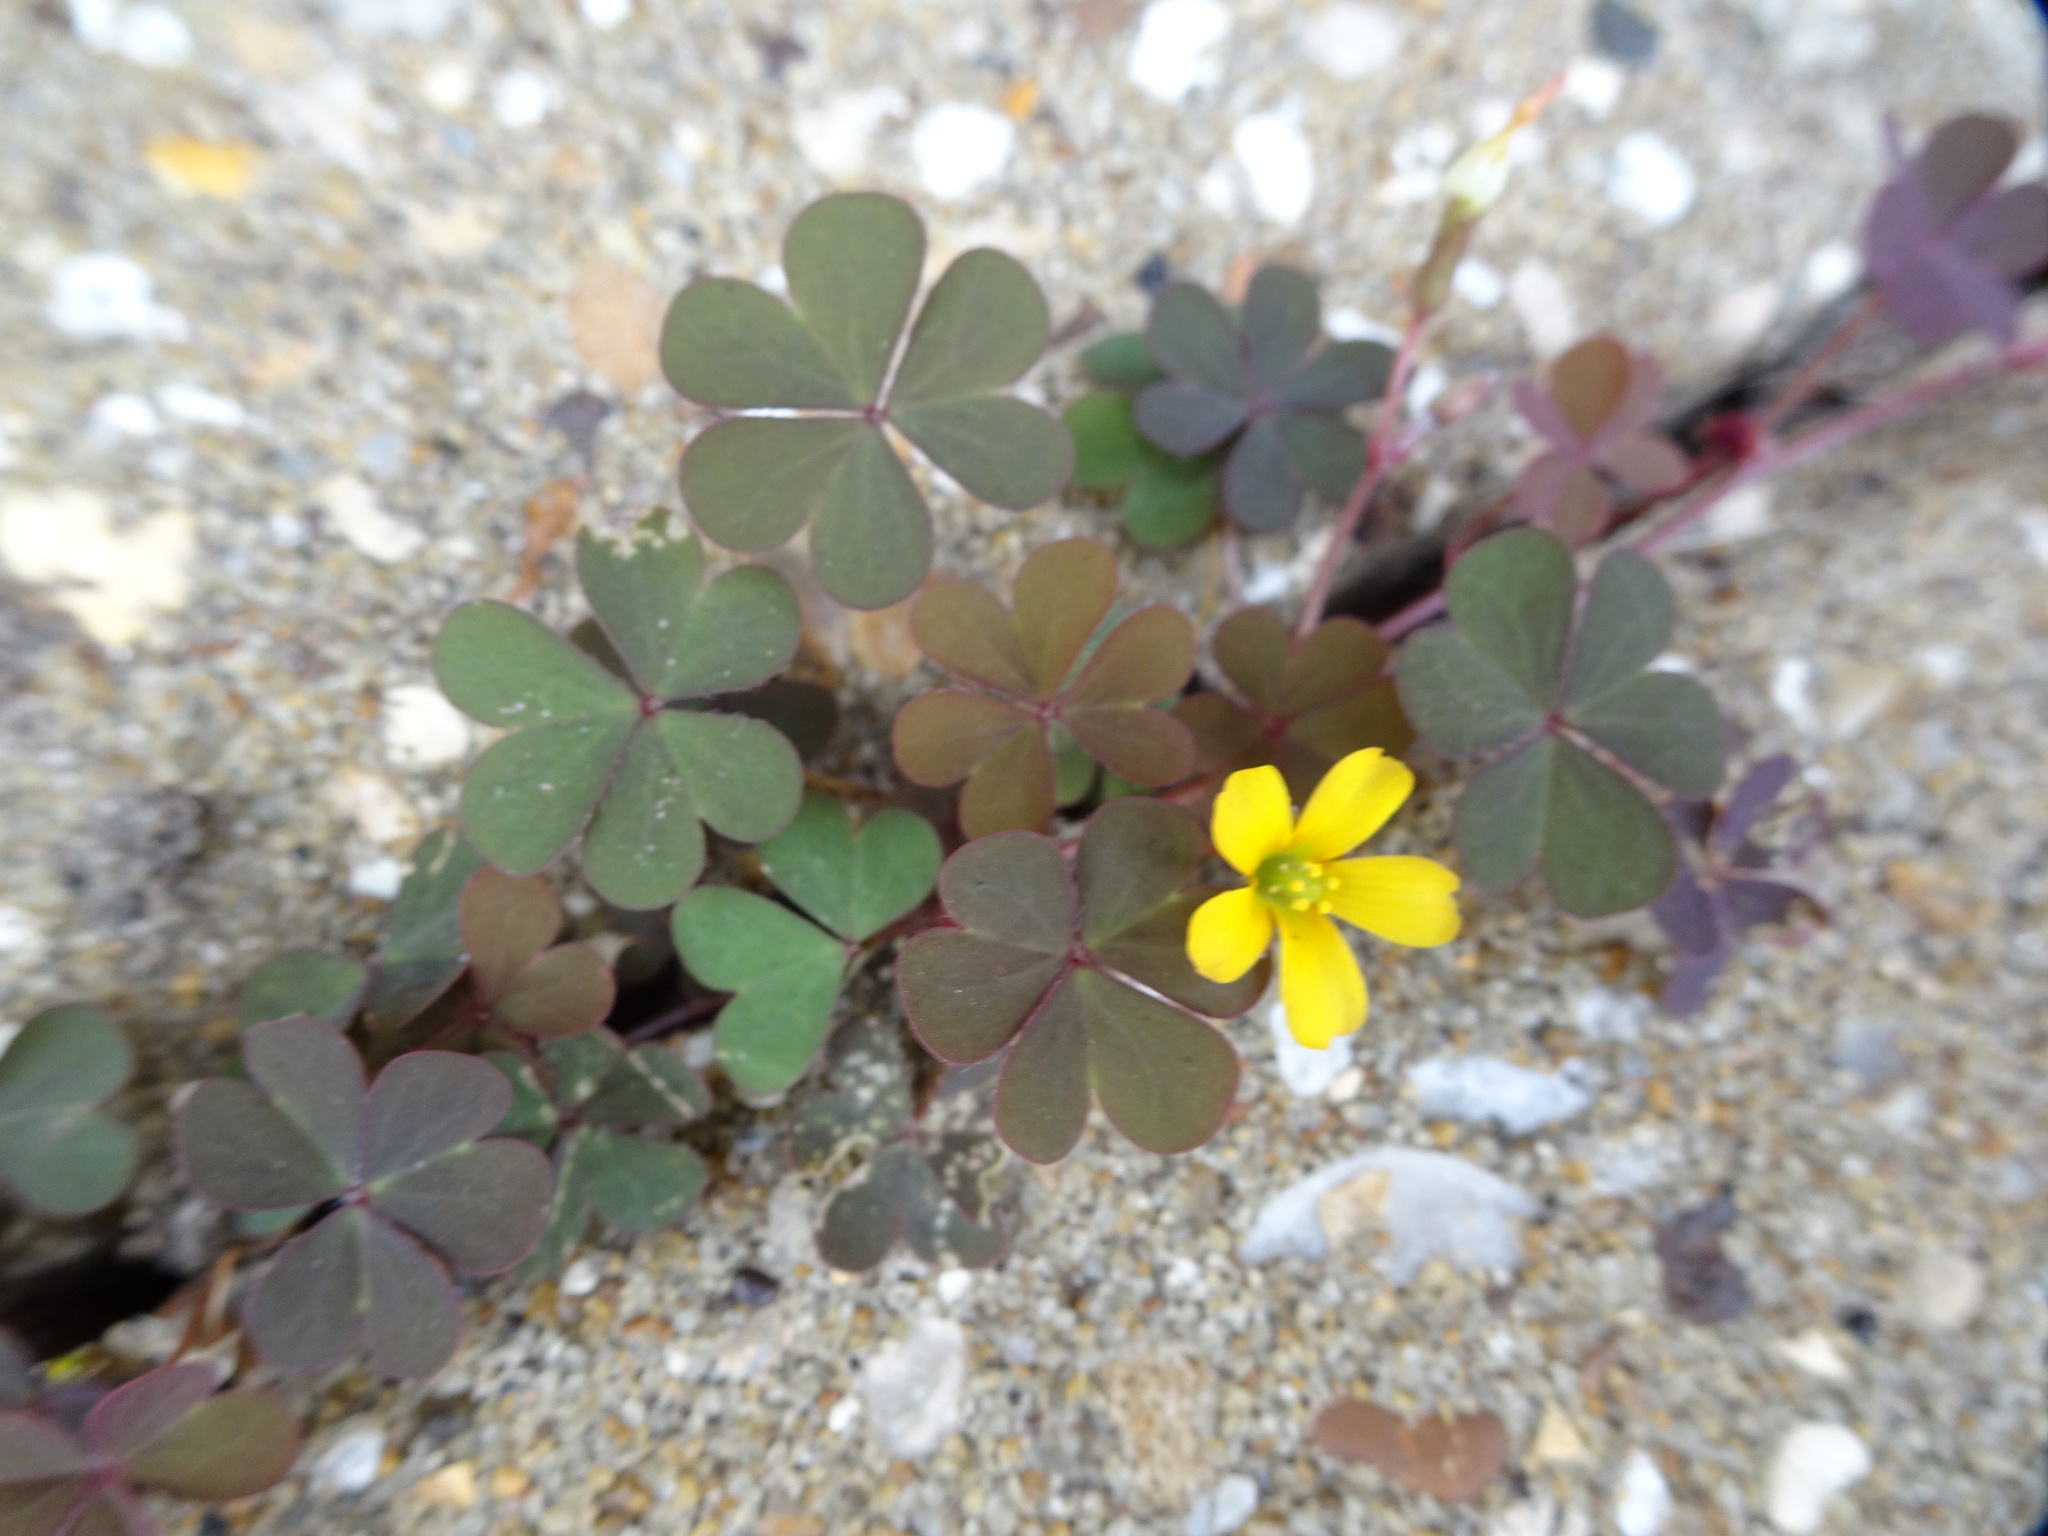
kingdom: Plantae
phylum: Tracheophyta
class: Magnoliopsida
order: Oxalidales
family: Oxalidaceae
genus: Oxalis
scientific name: Oxalis corniculata
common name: Procumbent yellow-sorrel
